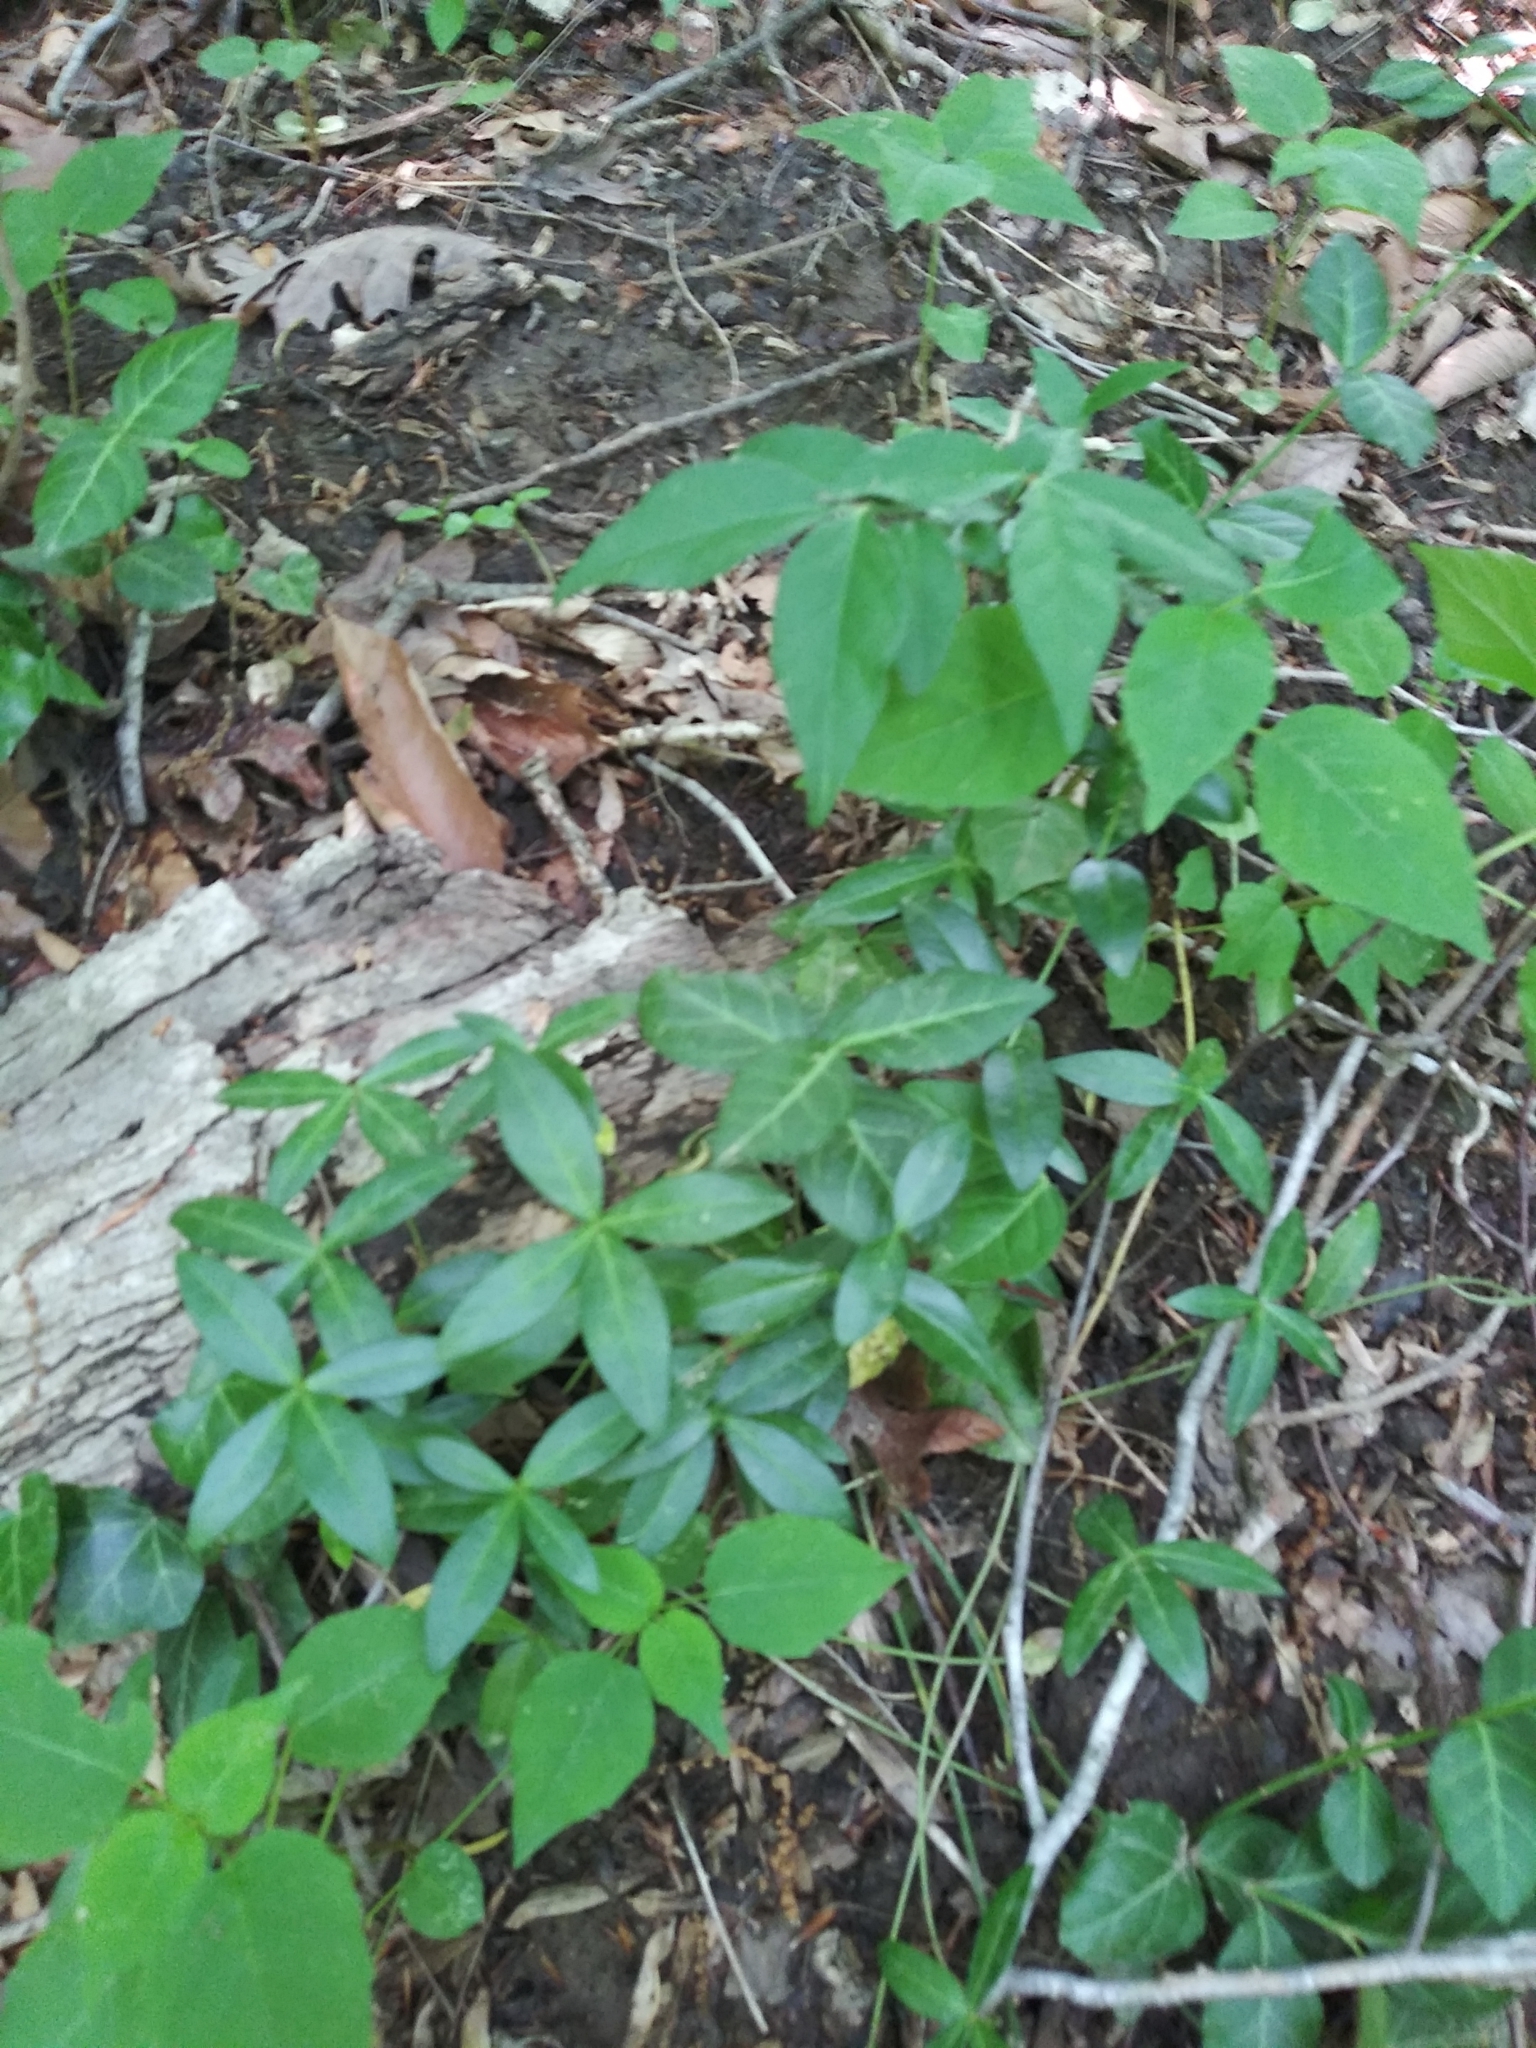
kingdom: Plantae
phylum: Tracheophyta
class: Magnoliopsida
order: Gentianales
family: Apocynaceae
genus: Vinca
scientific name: Vinca minor
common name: Lesser periwinkle
